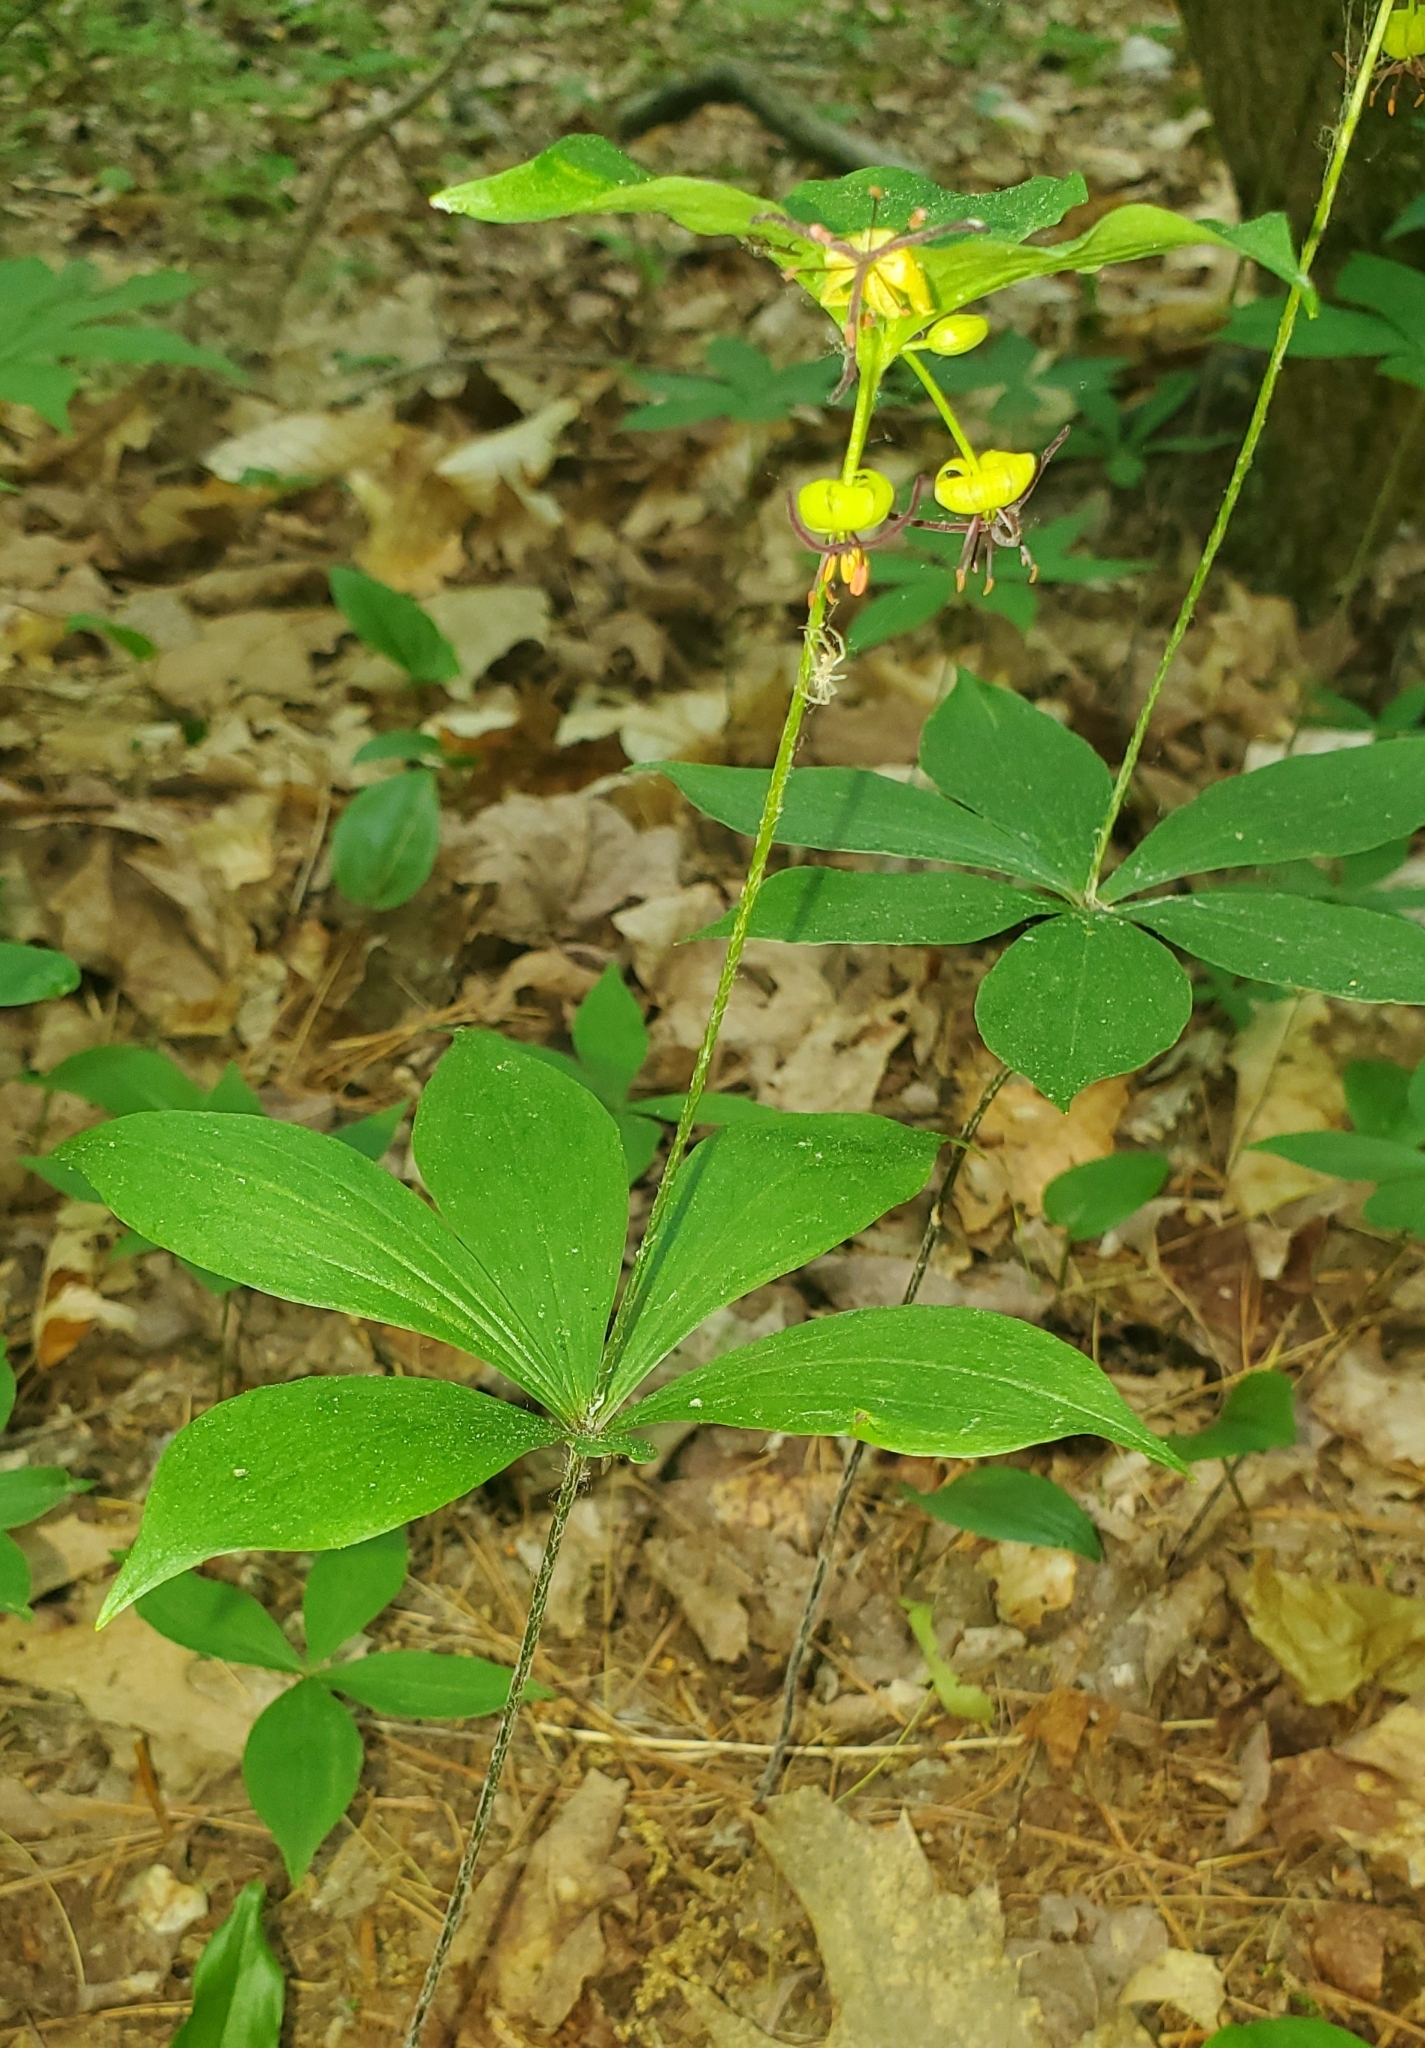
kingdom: Plantae
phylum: Tracheophyta
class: Liliopsida
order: Liliales
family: Liliaceae
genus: Medeola
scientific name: Medeola virginiana
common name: Indian cucumber-root
